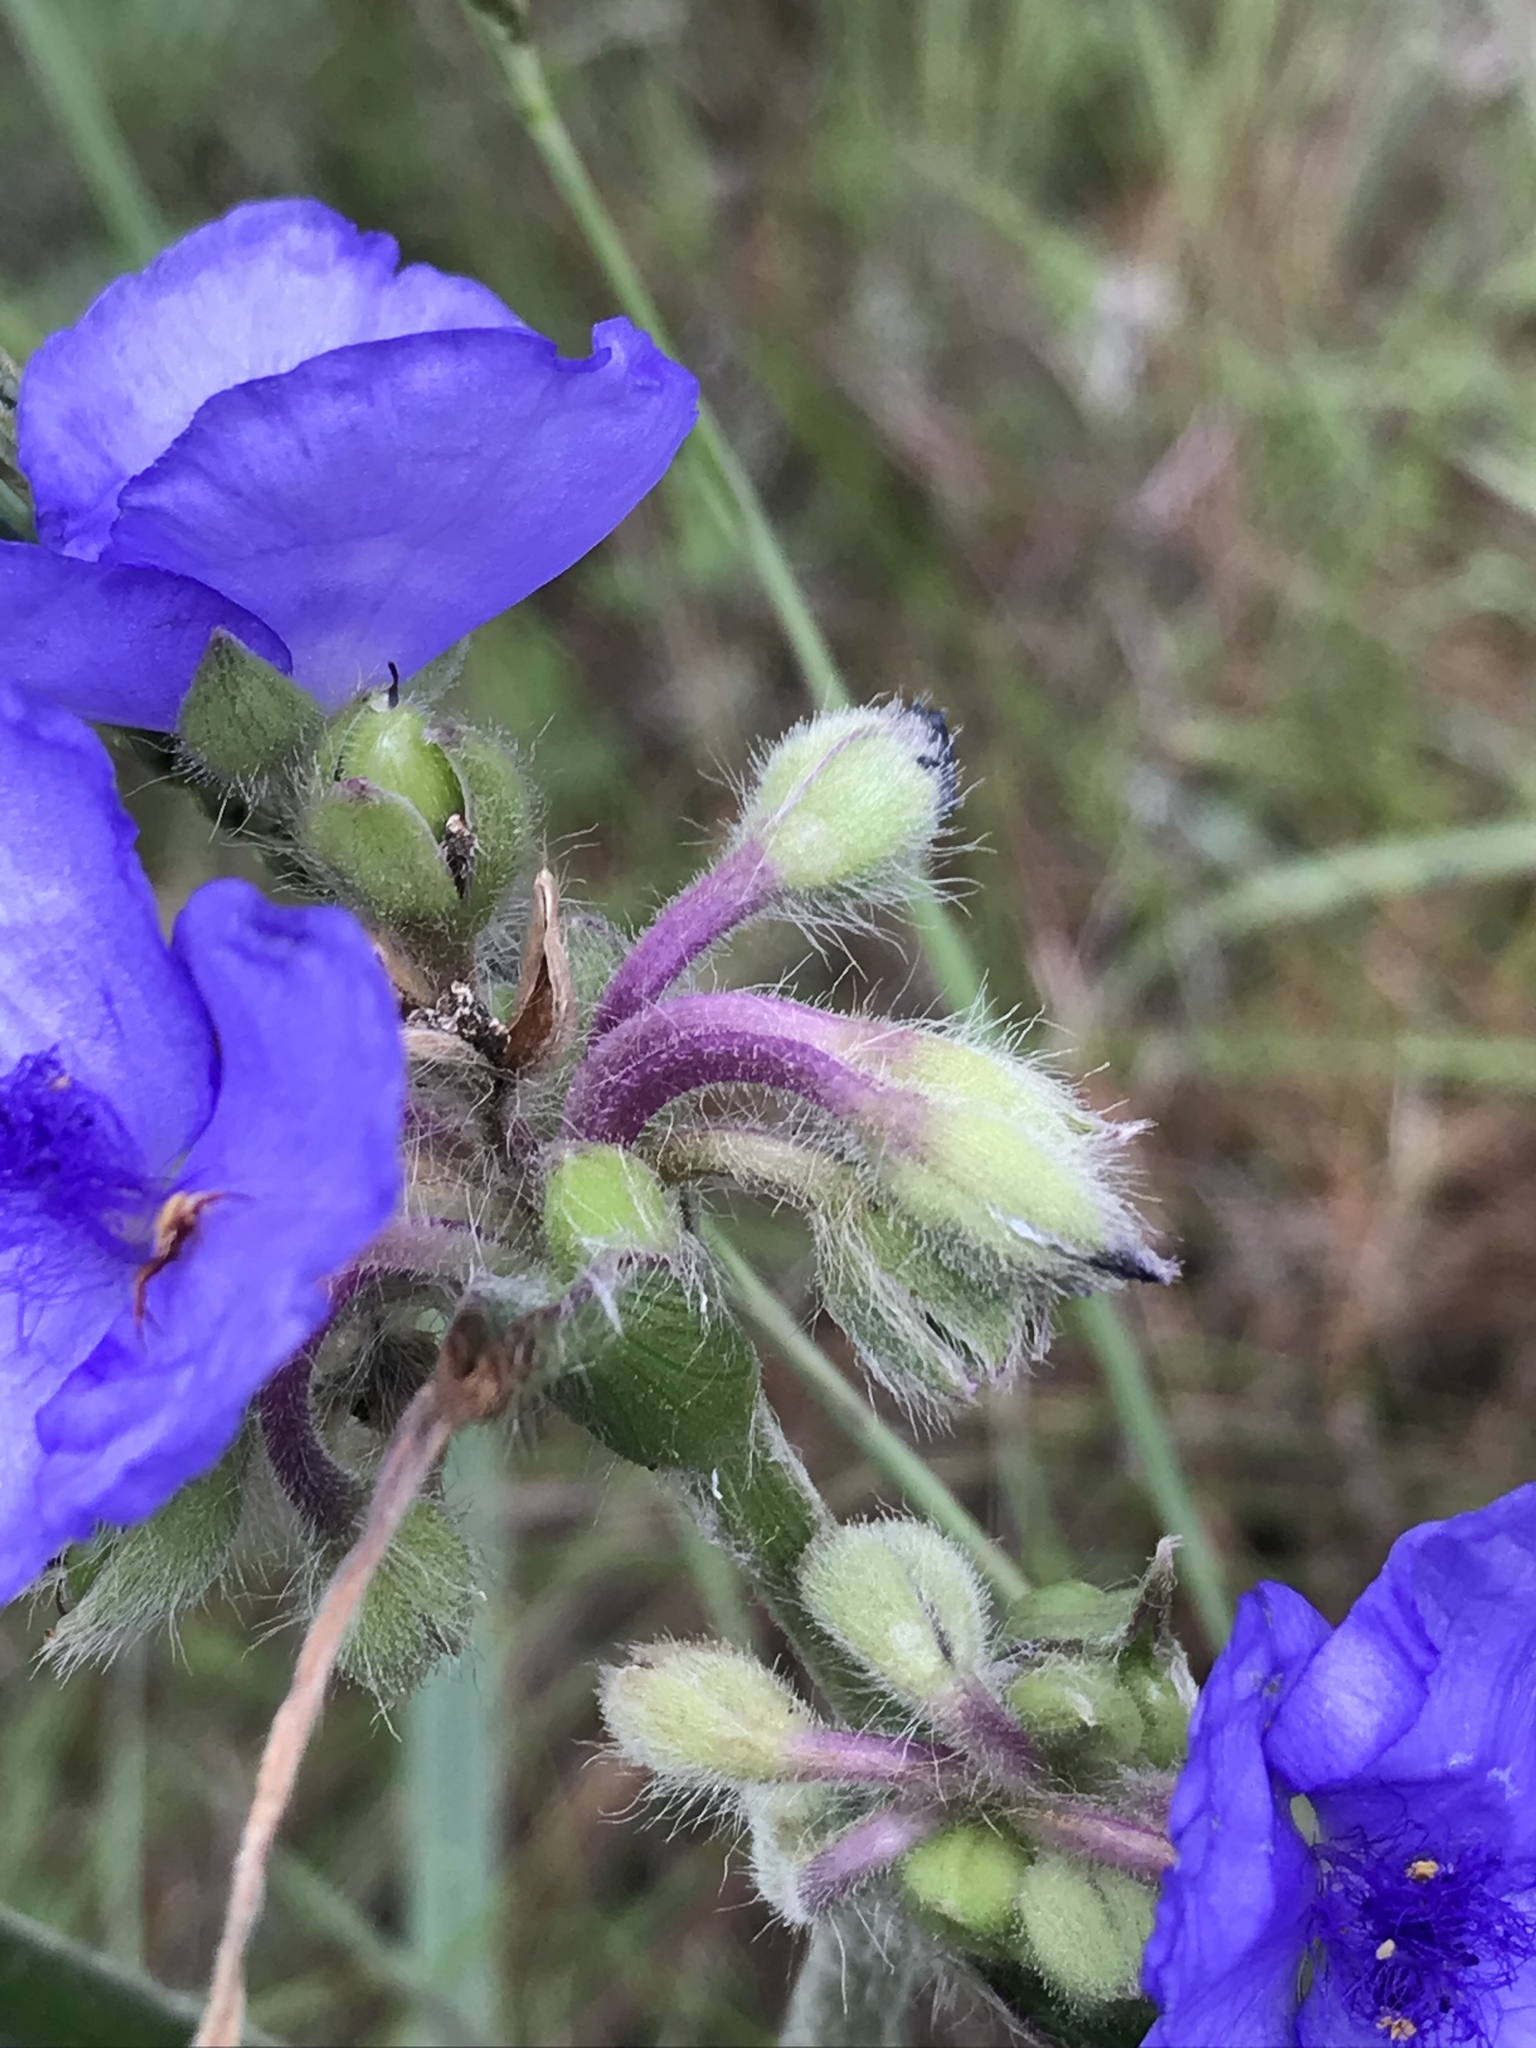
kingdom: Plantae
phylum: Tracheophyta
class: Liliopsida
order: Commelinales
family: Commelinaceae
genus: Tradescantia
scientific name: Tradescantia reverchonii
